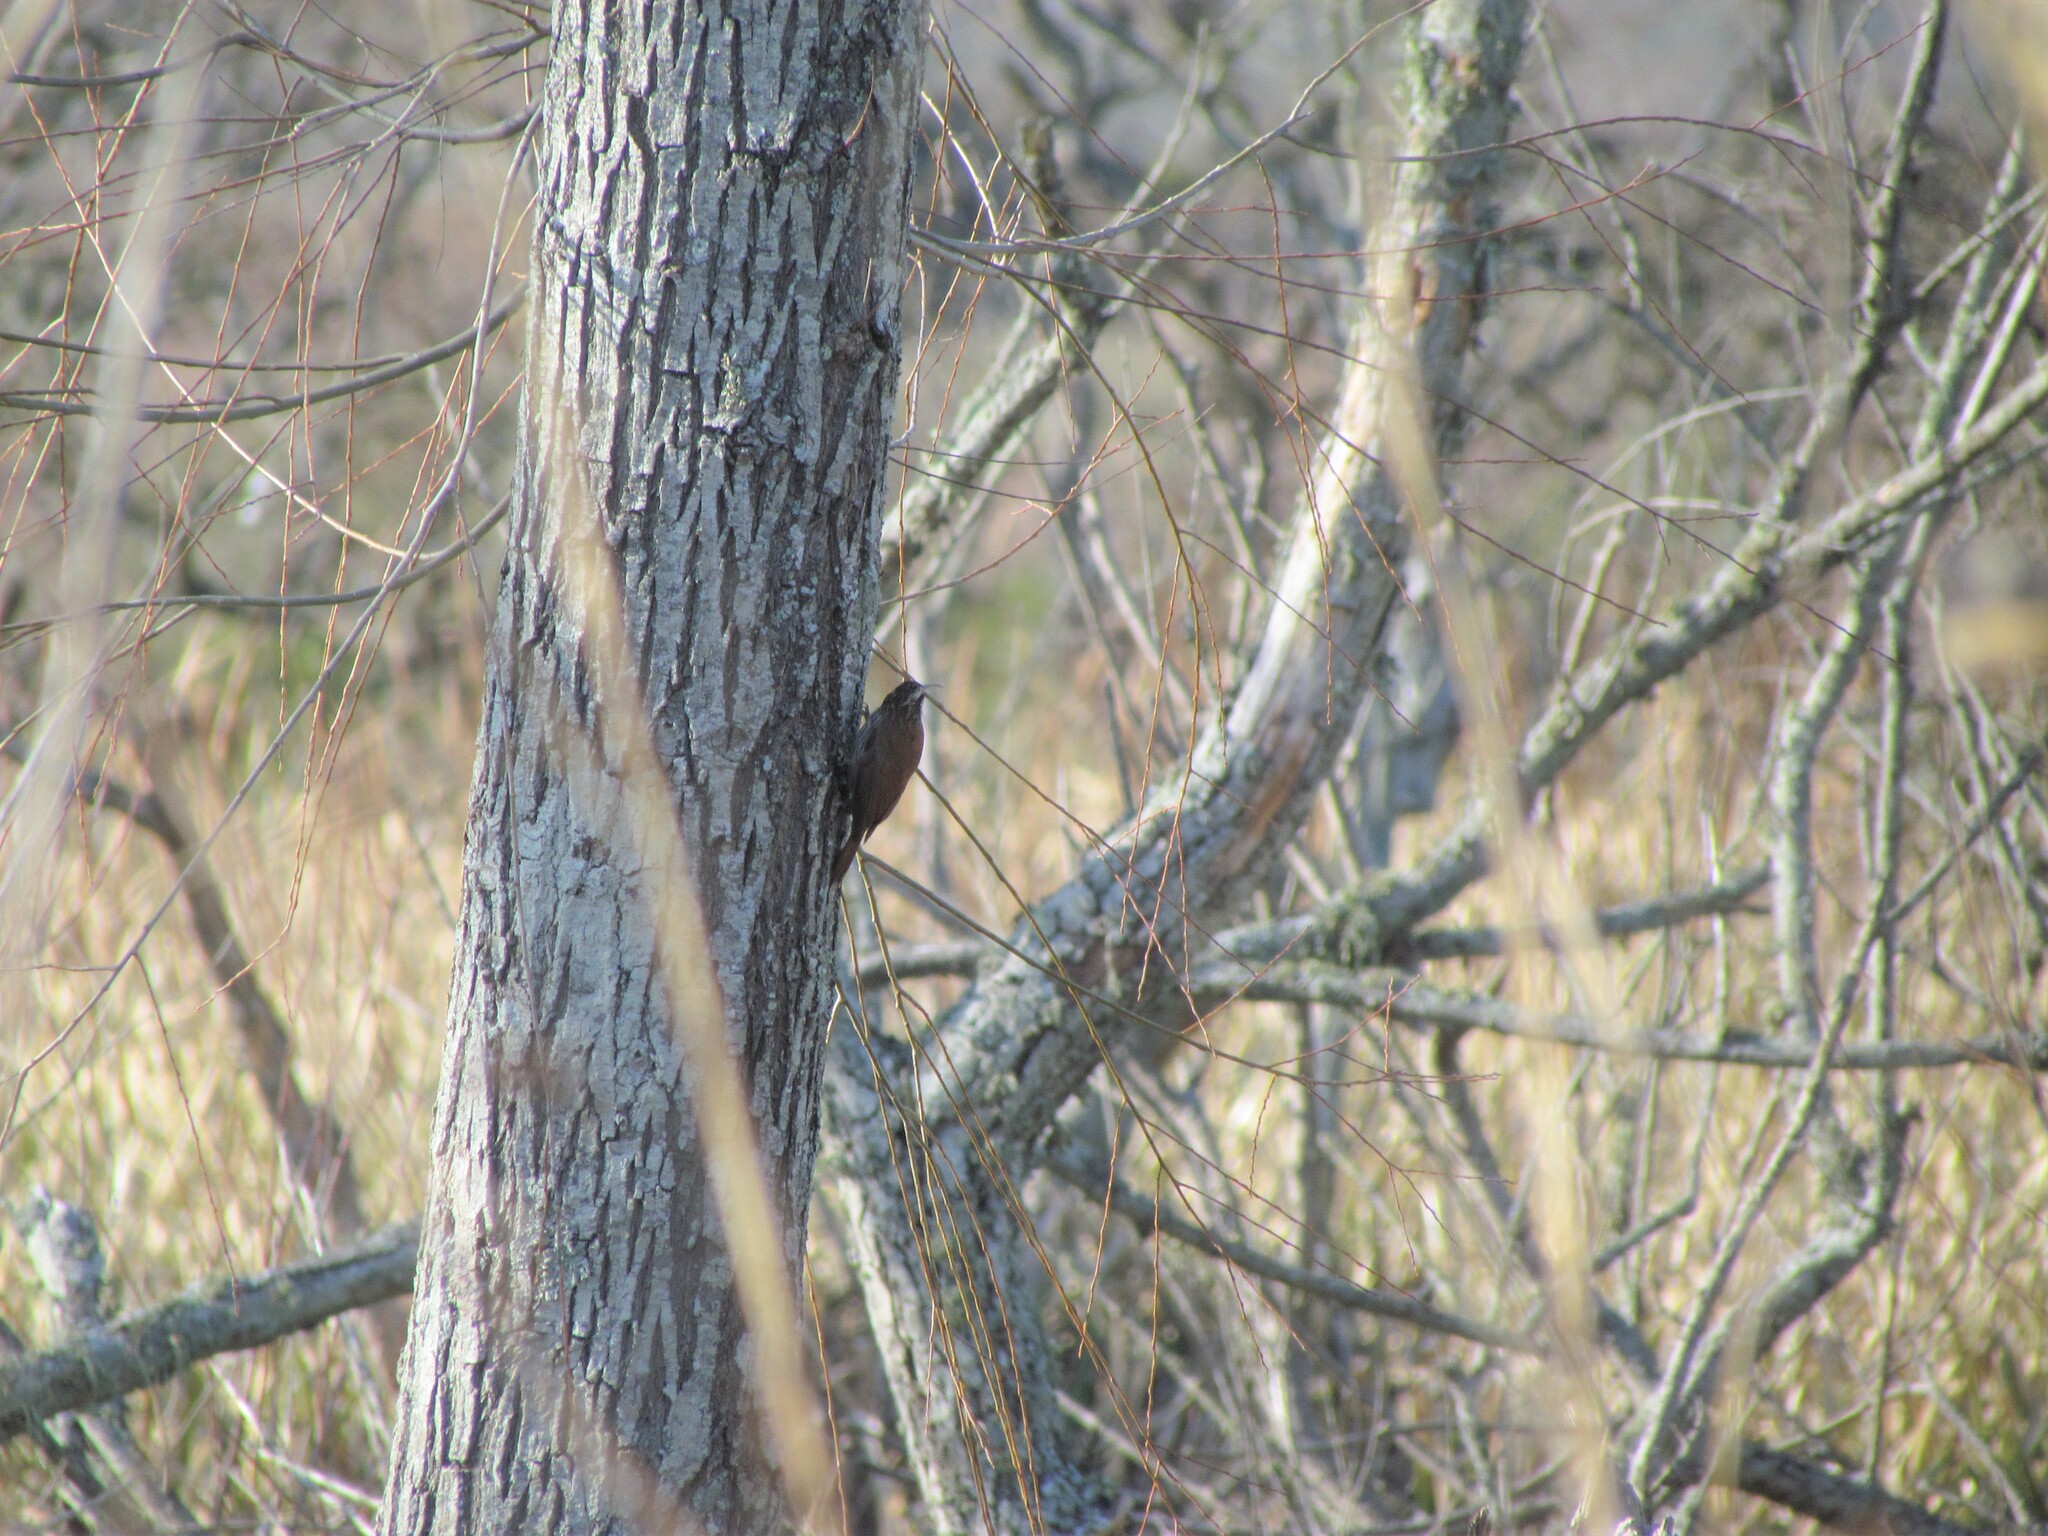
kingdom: Animalia
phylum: Chordata
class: Aves
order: Passeriformes
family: Furnariidae
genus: Lepidocolaptes
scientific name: Lepidocolaptes angustirostris
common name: Narrow-billed woodcreeper
